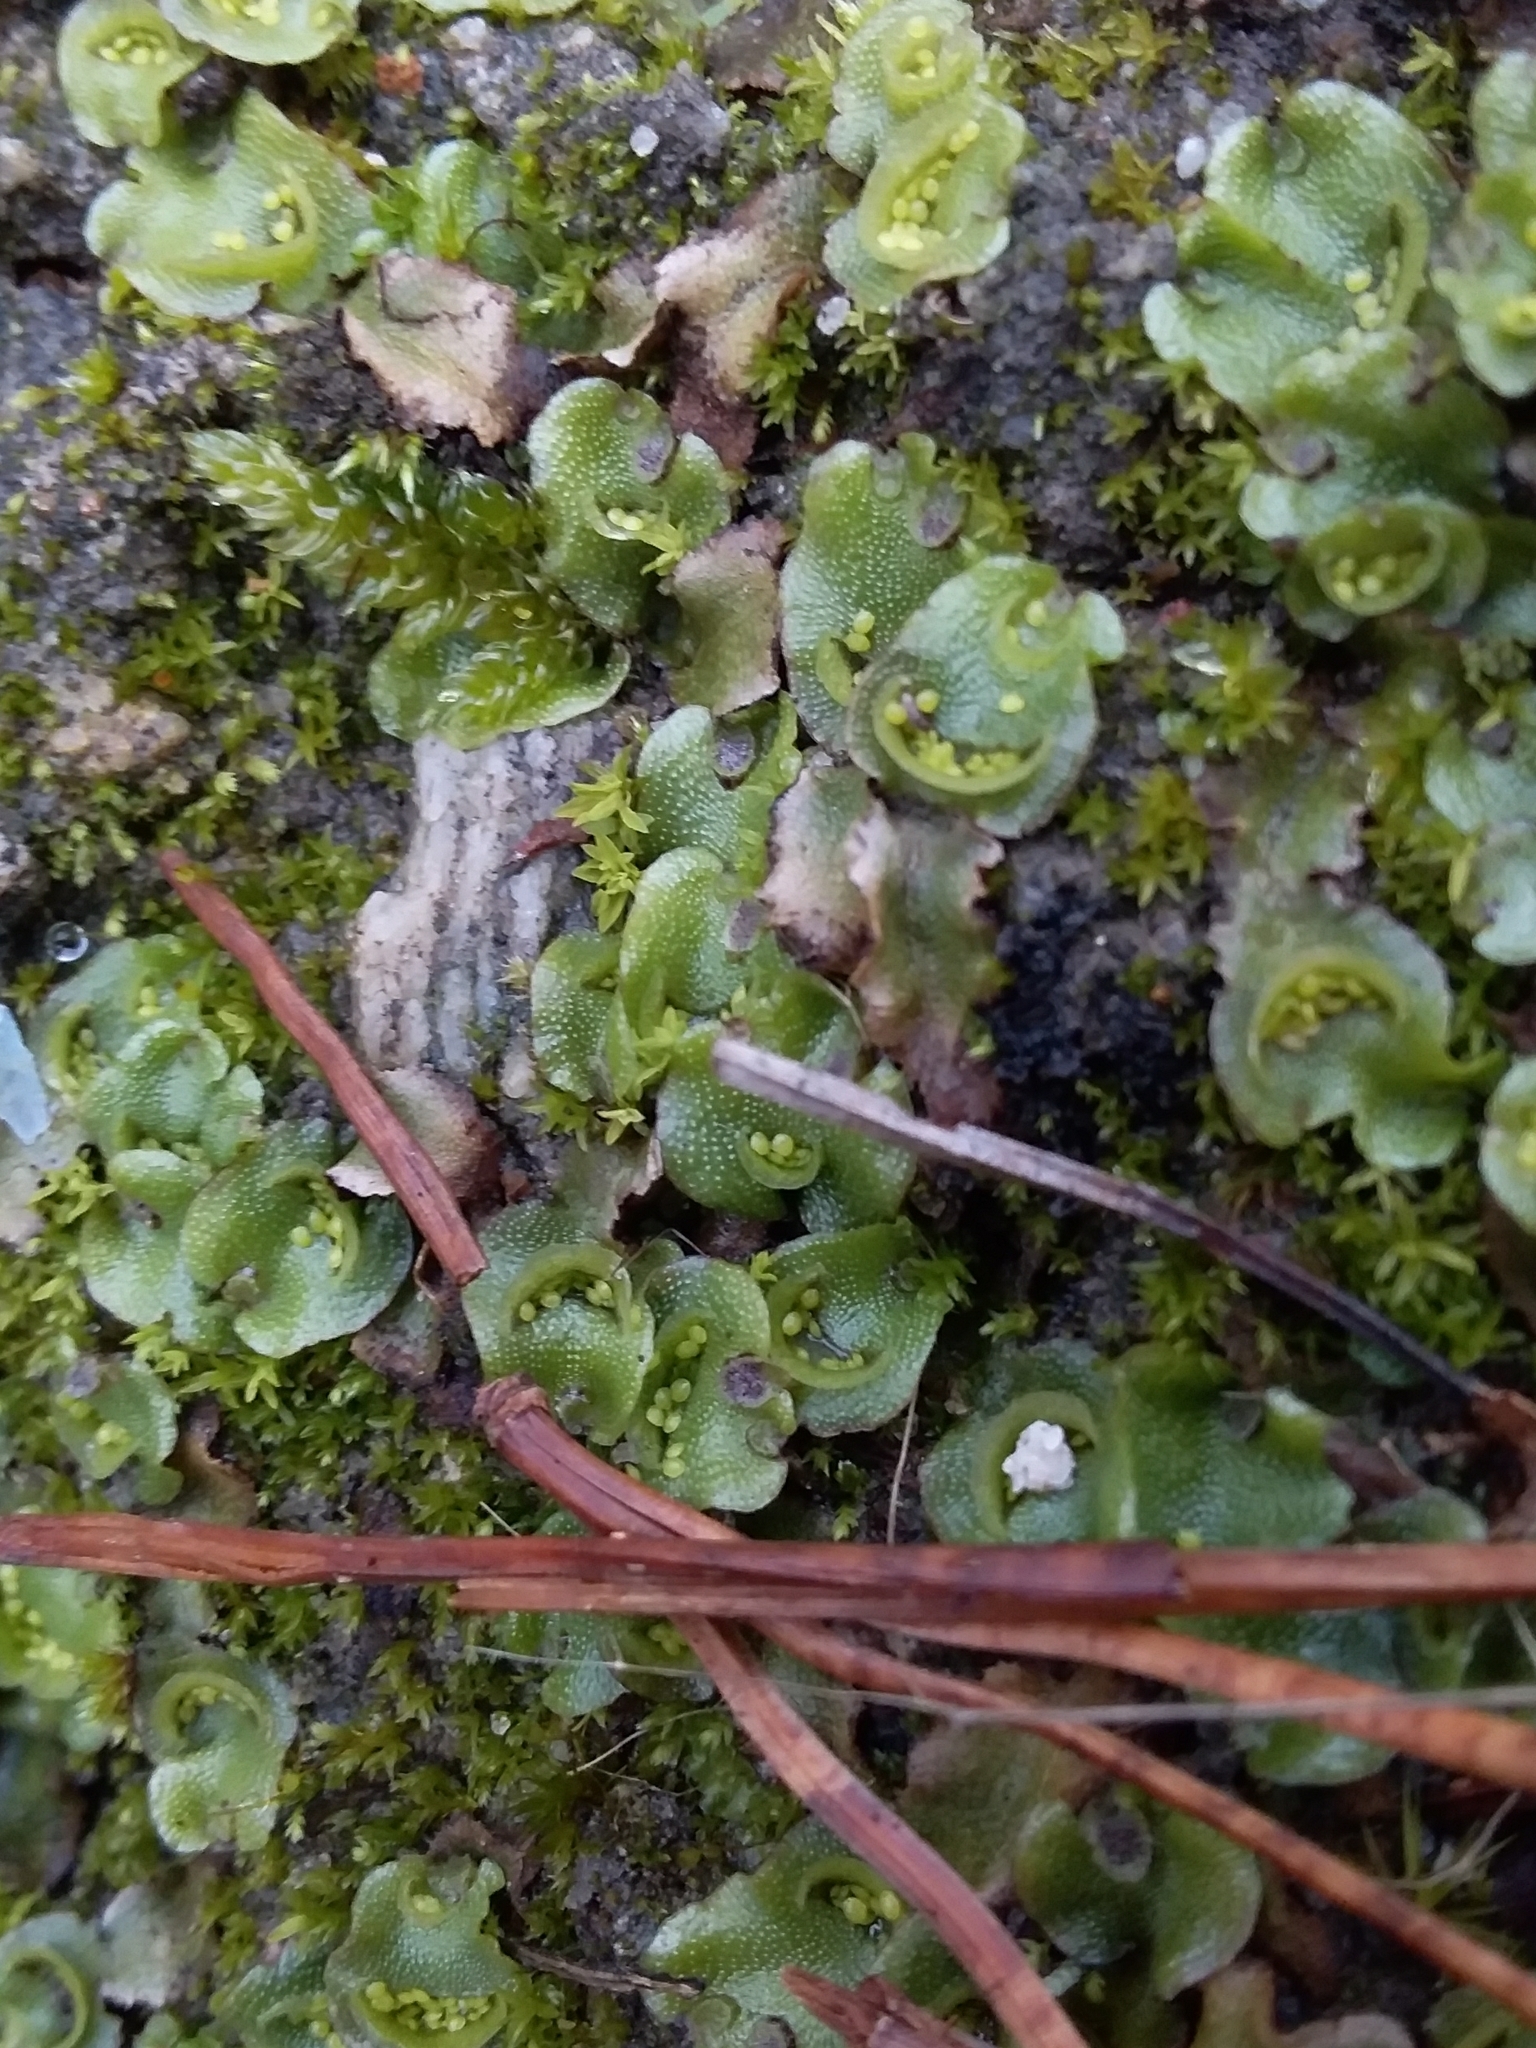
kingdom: Plantae
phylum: Marchantiophyta
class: Marchantiopsida
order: Lunulariales
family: Lunulariaceae
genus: Lunularia
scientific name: Lunularia cruciata
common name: Crescent-cup liverwort
